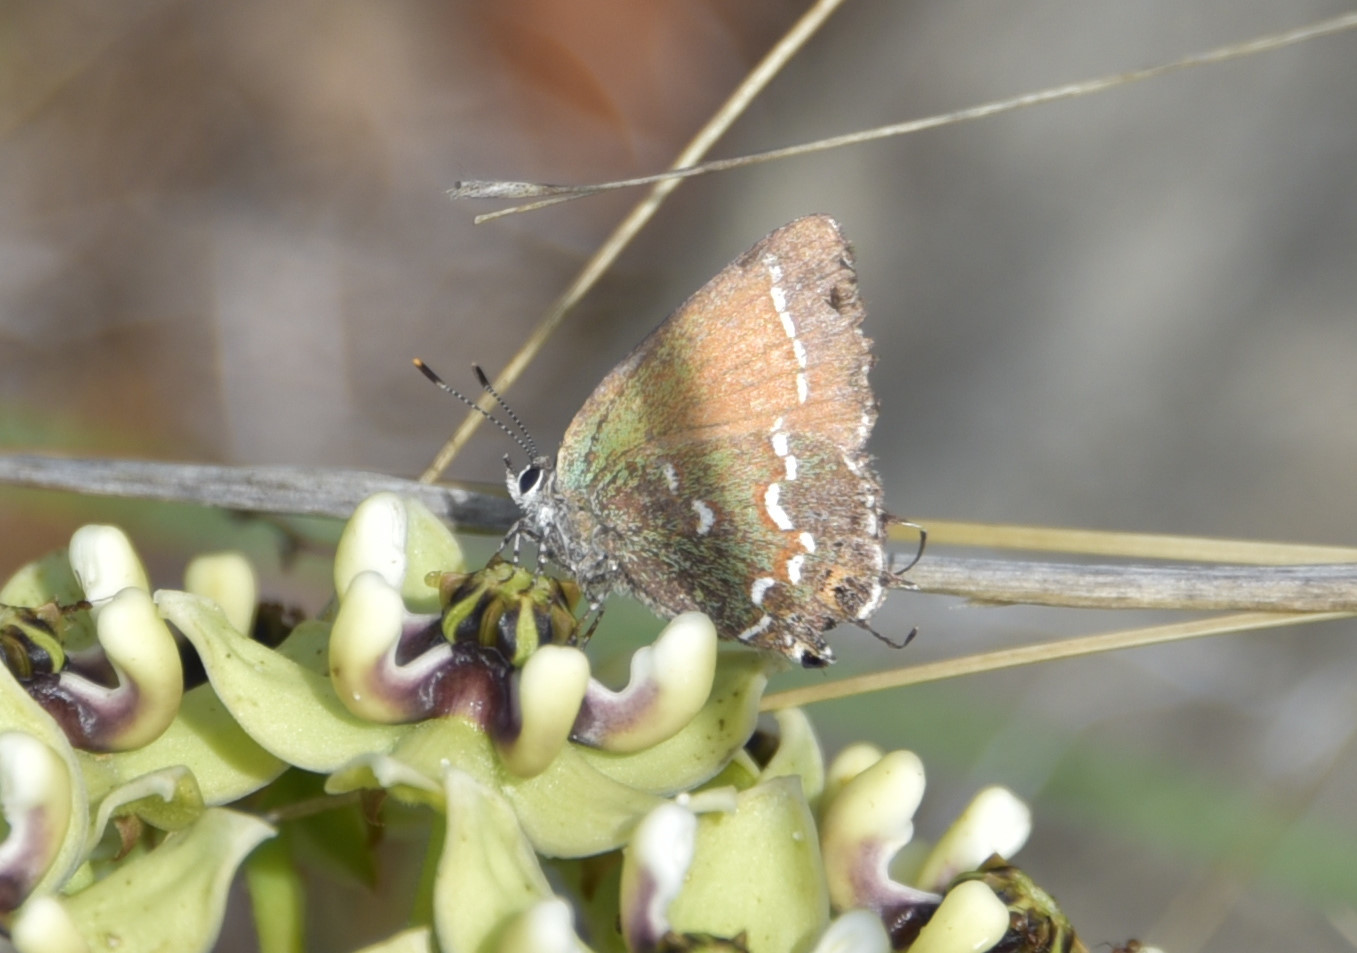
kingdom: Animalia
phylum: Arthropoda
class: Insecta
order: Lepidoptera
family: Lycaenidae
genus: Mitoura
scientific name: Mitoura gryneus
